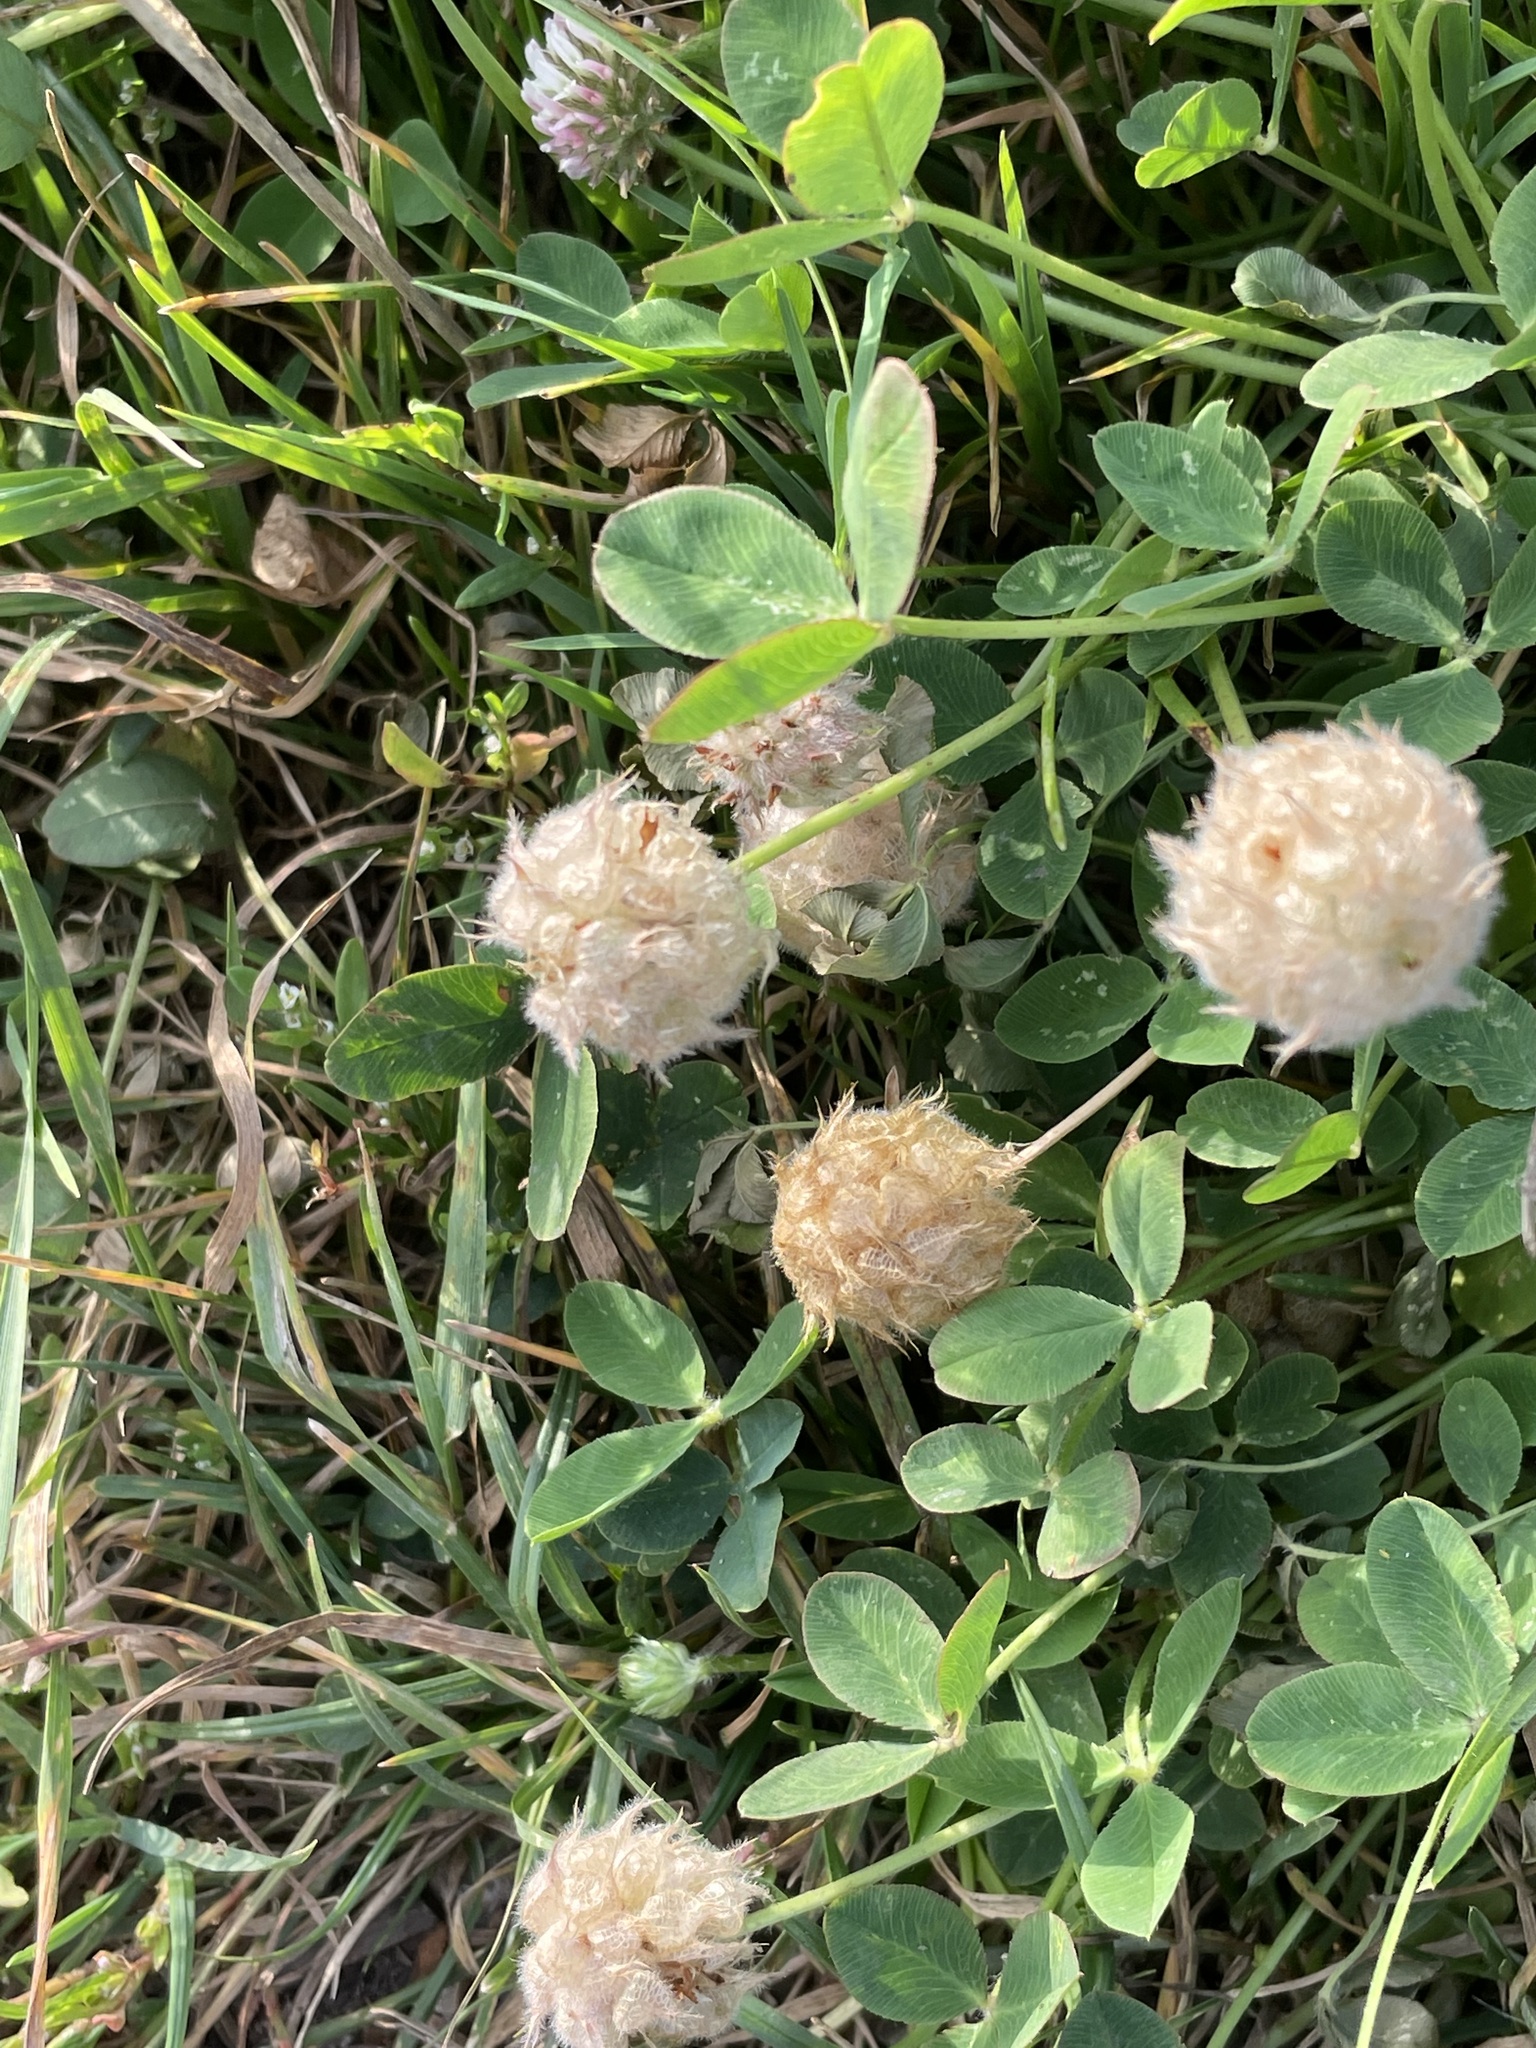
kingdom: Plantae
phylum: Tracheophyta
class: Magnoliopsida
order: Fabales
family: Fabaceae
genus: Trifolium
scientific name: Trifolium fragiferum
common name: Strawberry clover
